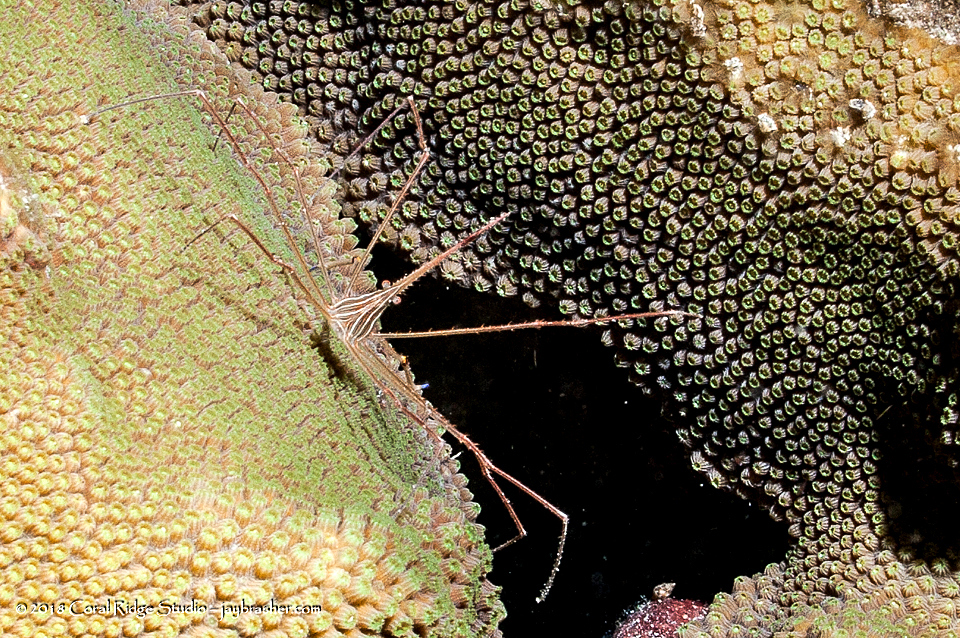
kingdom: Animalia
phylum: Arthropoda
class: Malacostraca
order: Decapoda
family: Inachoididae
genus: Stenorhynchus
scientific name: Stenorhynchus seticornis
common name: Arrow crab
